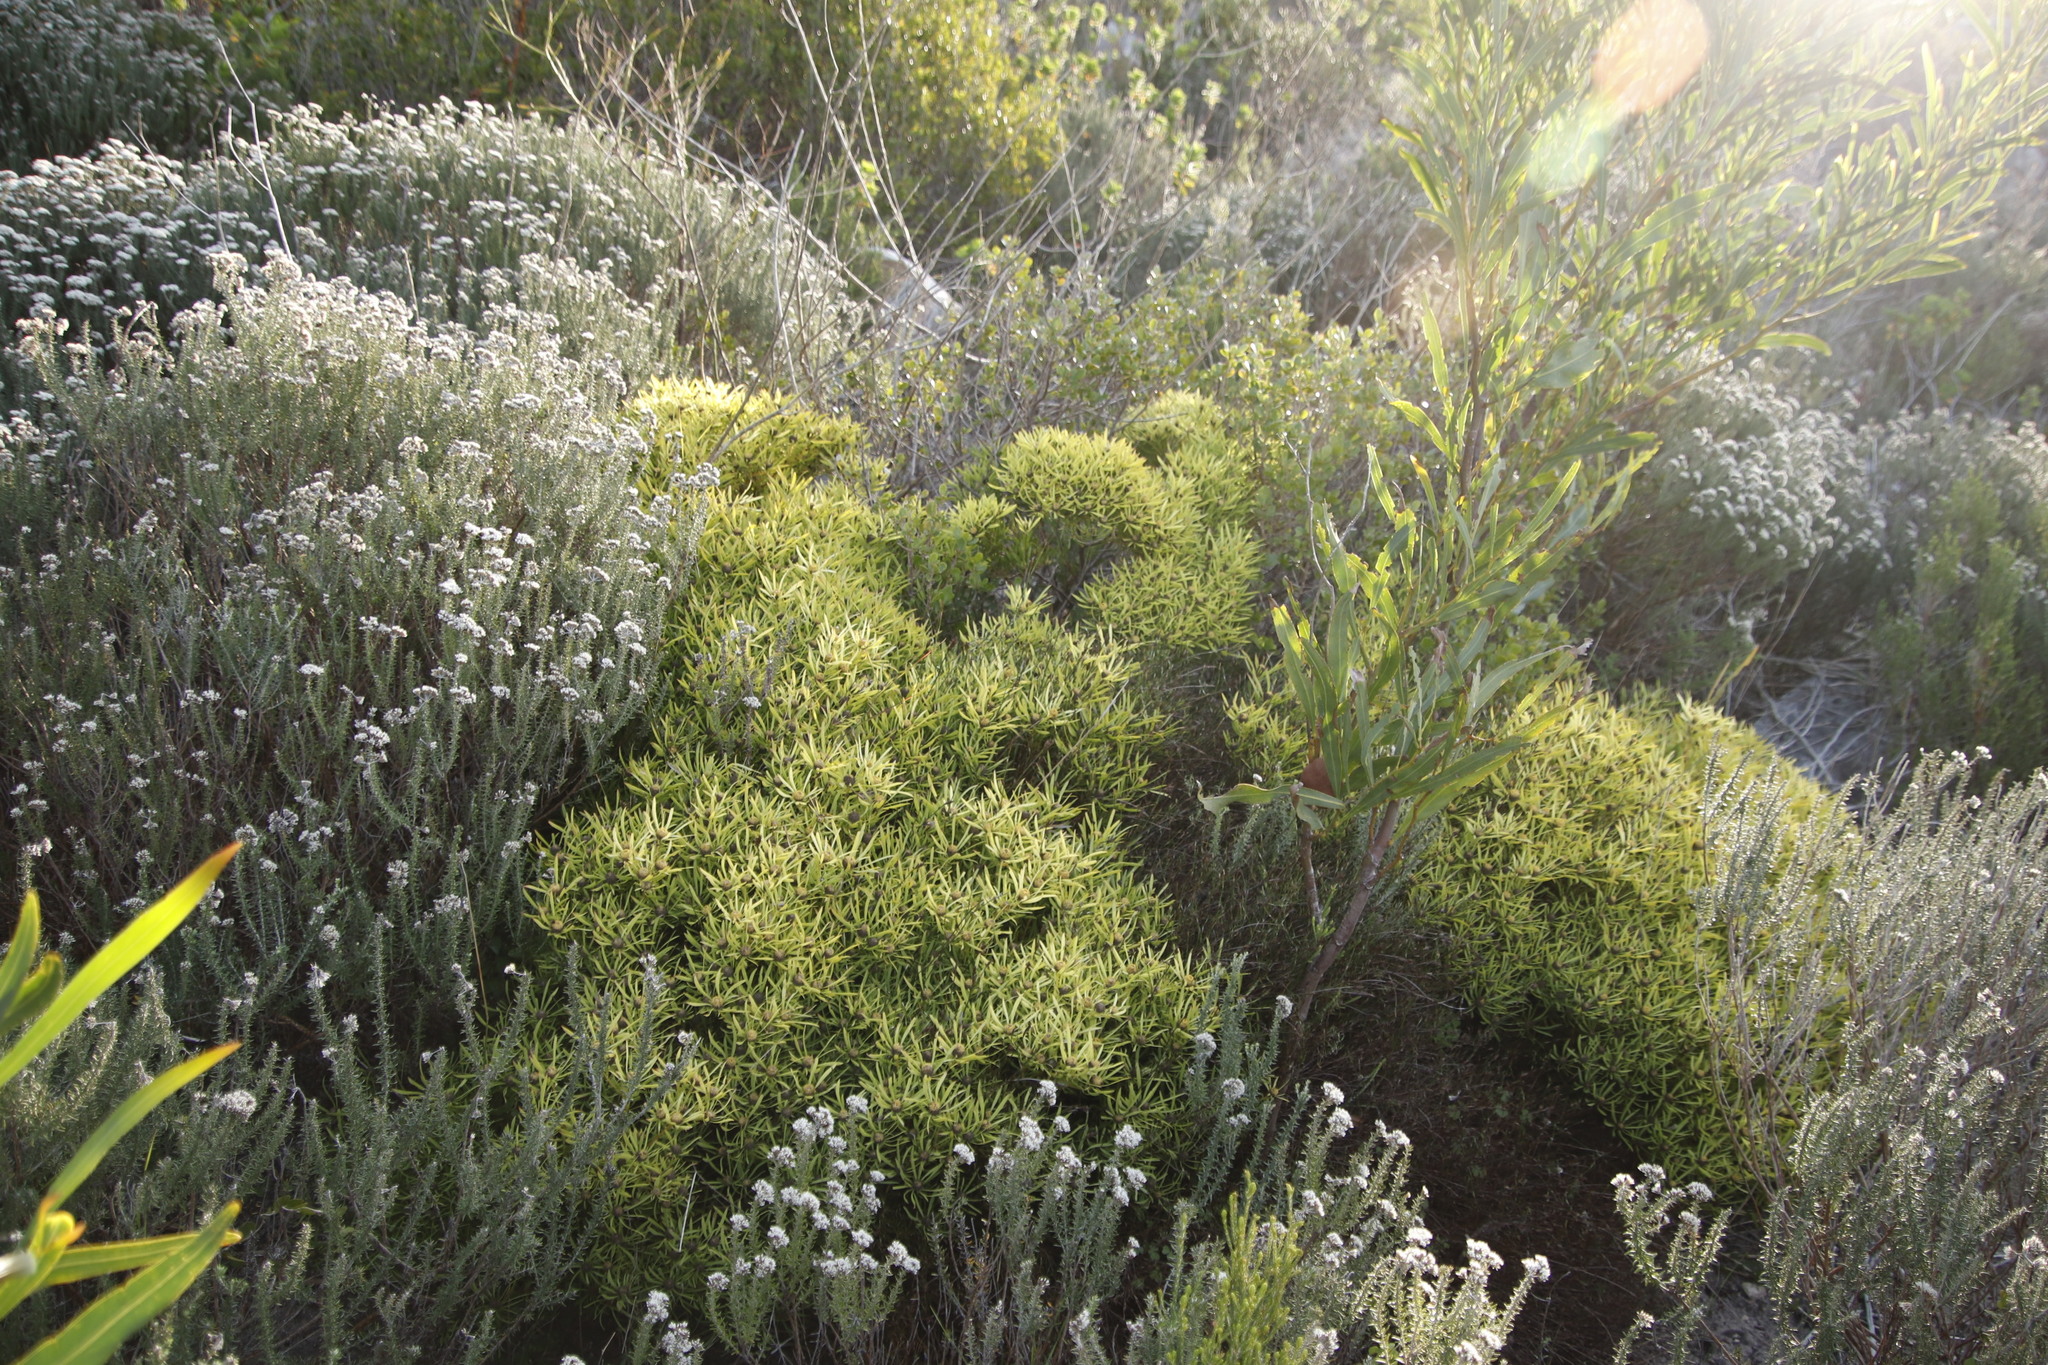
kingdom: Plantae
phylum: Tracheophyta
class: Magnoliopsida
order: Proteales
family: Proteaceae
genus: Leucadendron
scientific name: Leucadendron salignum
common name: Common sunshine conebush
